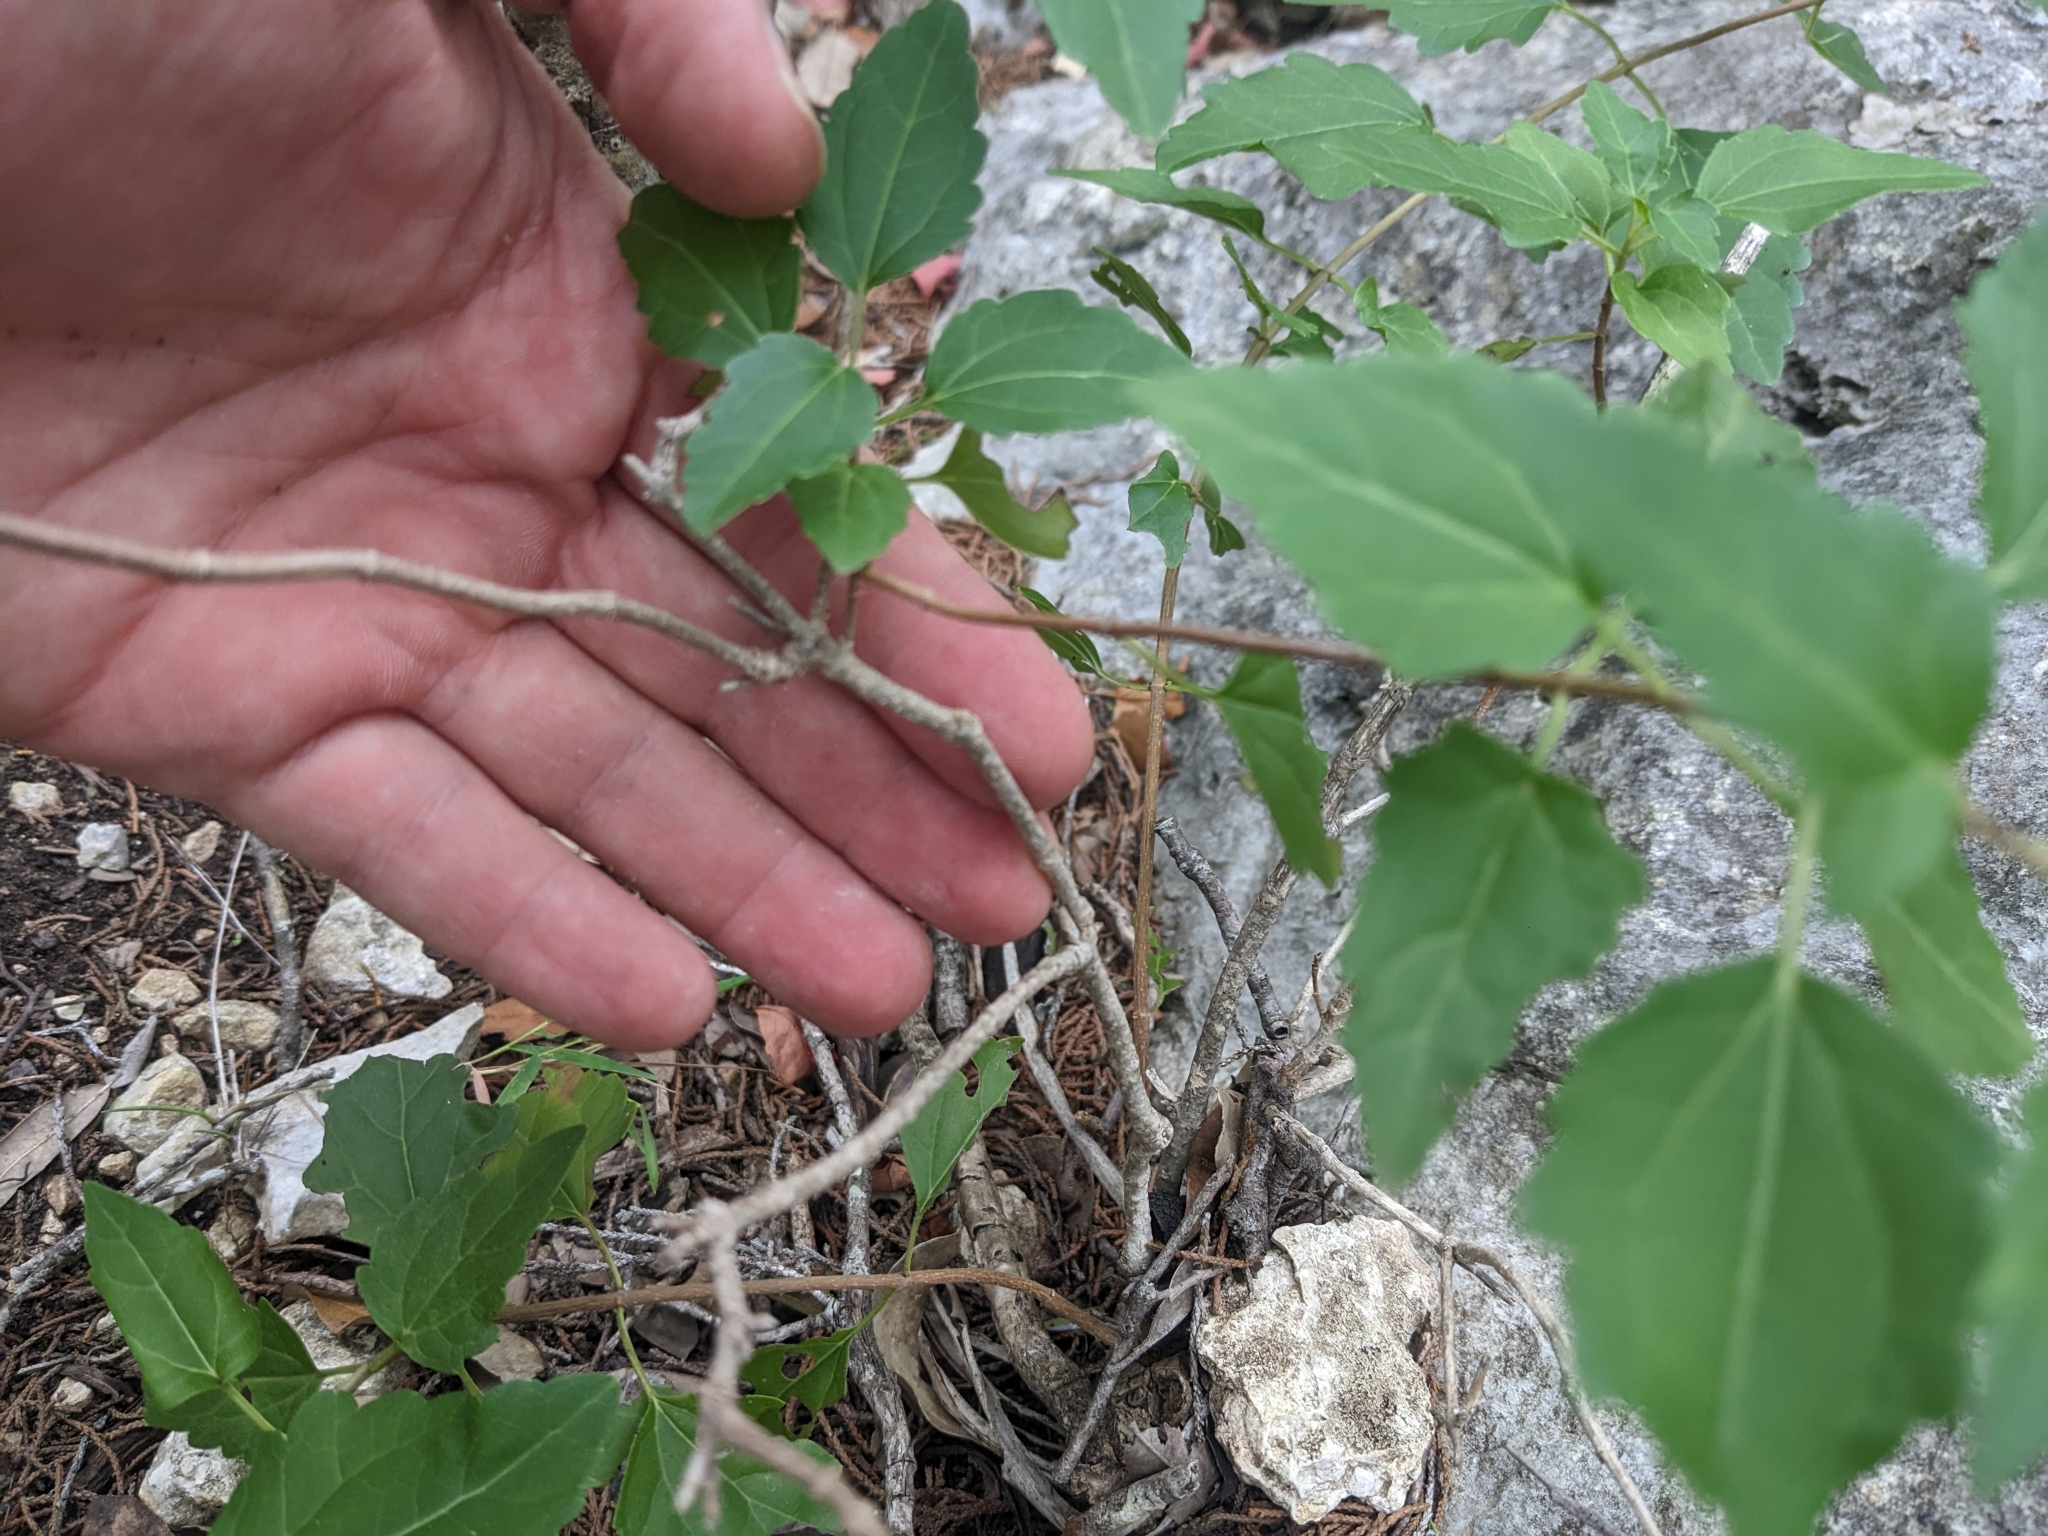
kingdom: Plantae
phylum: Tracheophyta
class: Magnoliopsida
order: Asterales
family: Asteraceae
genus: Ageratina
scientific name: Ageratina havanensis
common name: Havana snakeroot
